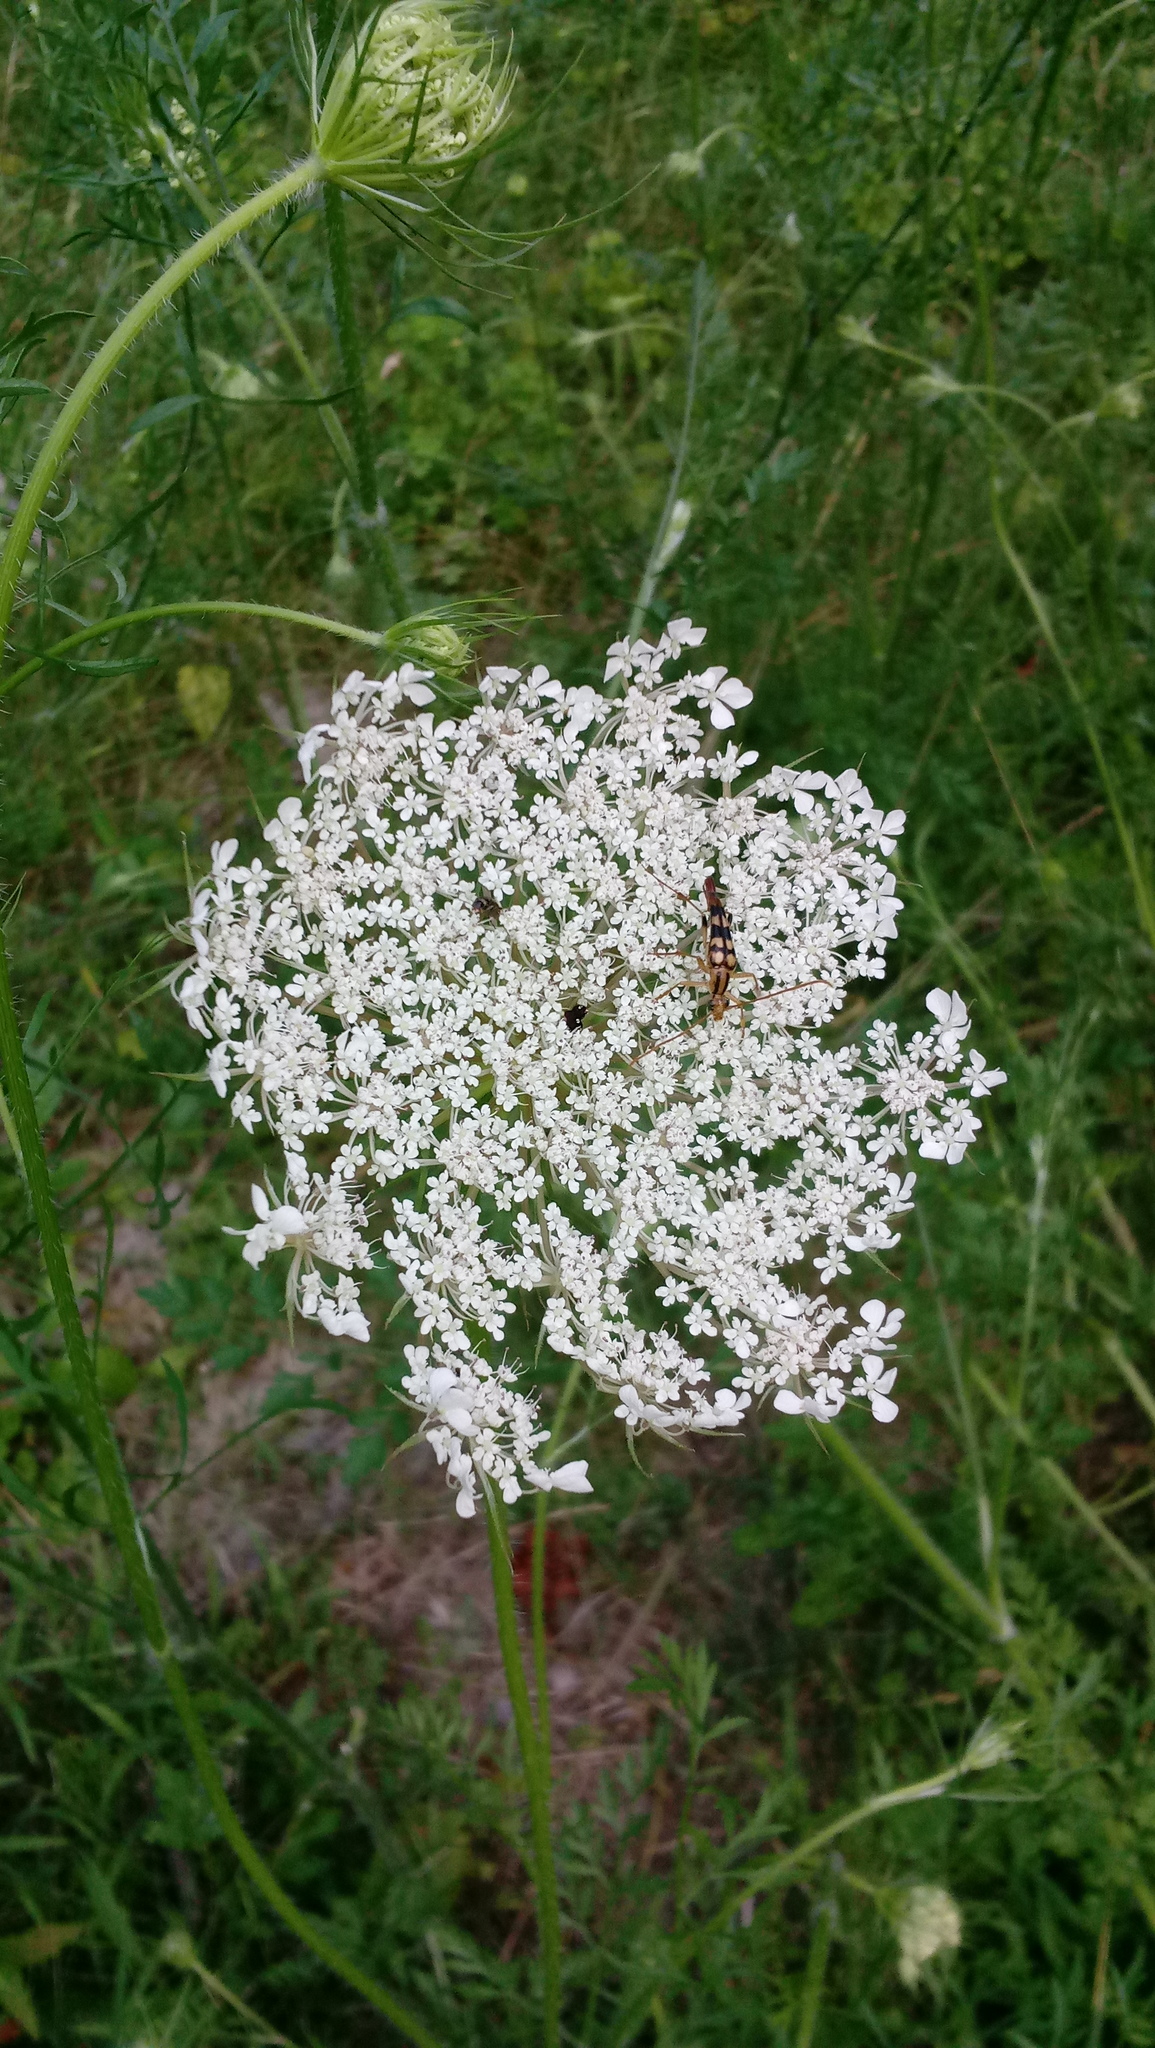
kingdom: Plantae
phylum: Tracheophyta
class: Magnoliopsida
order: Apiales
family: Apiaceae
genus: Daucus
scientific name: Daucus carota
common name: Wild carrot
